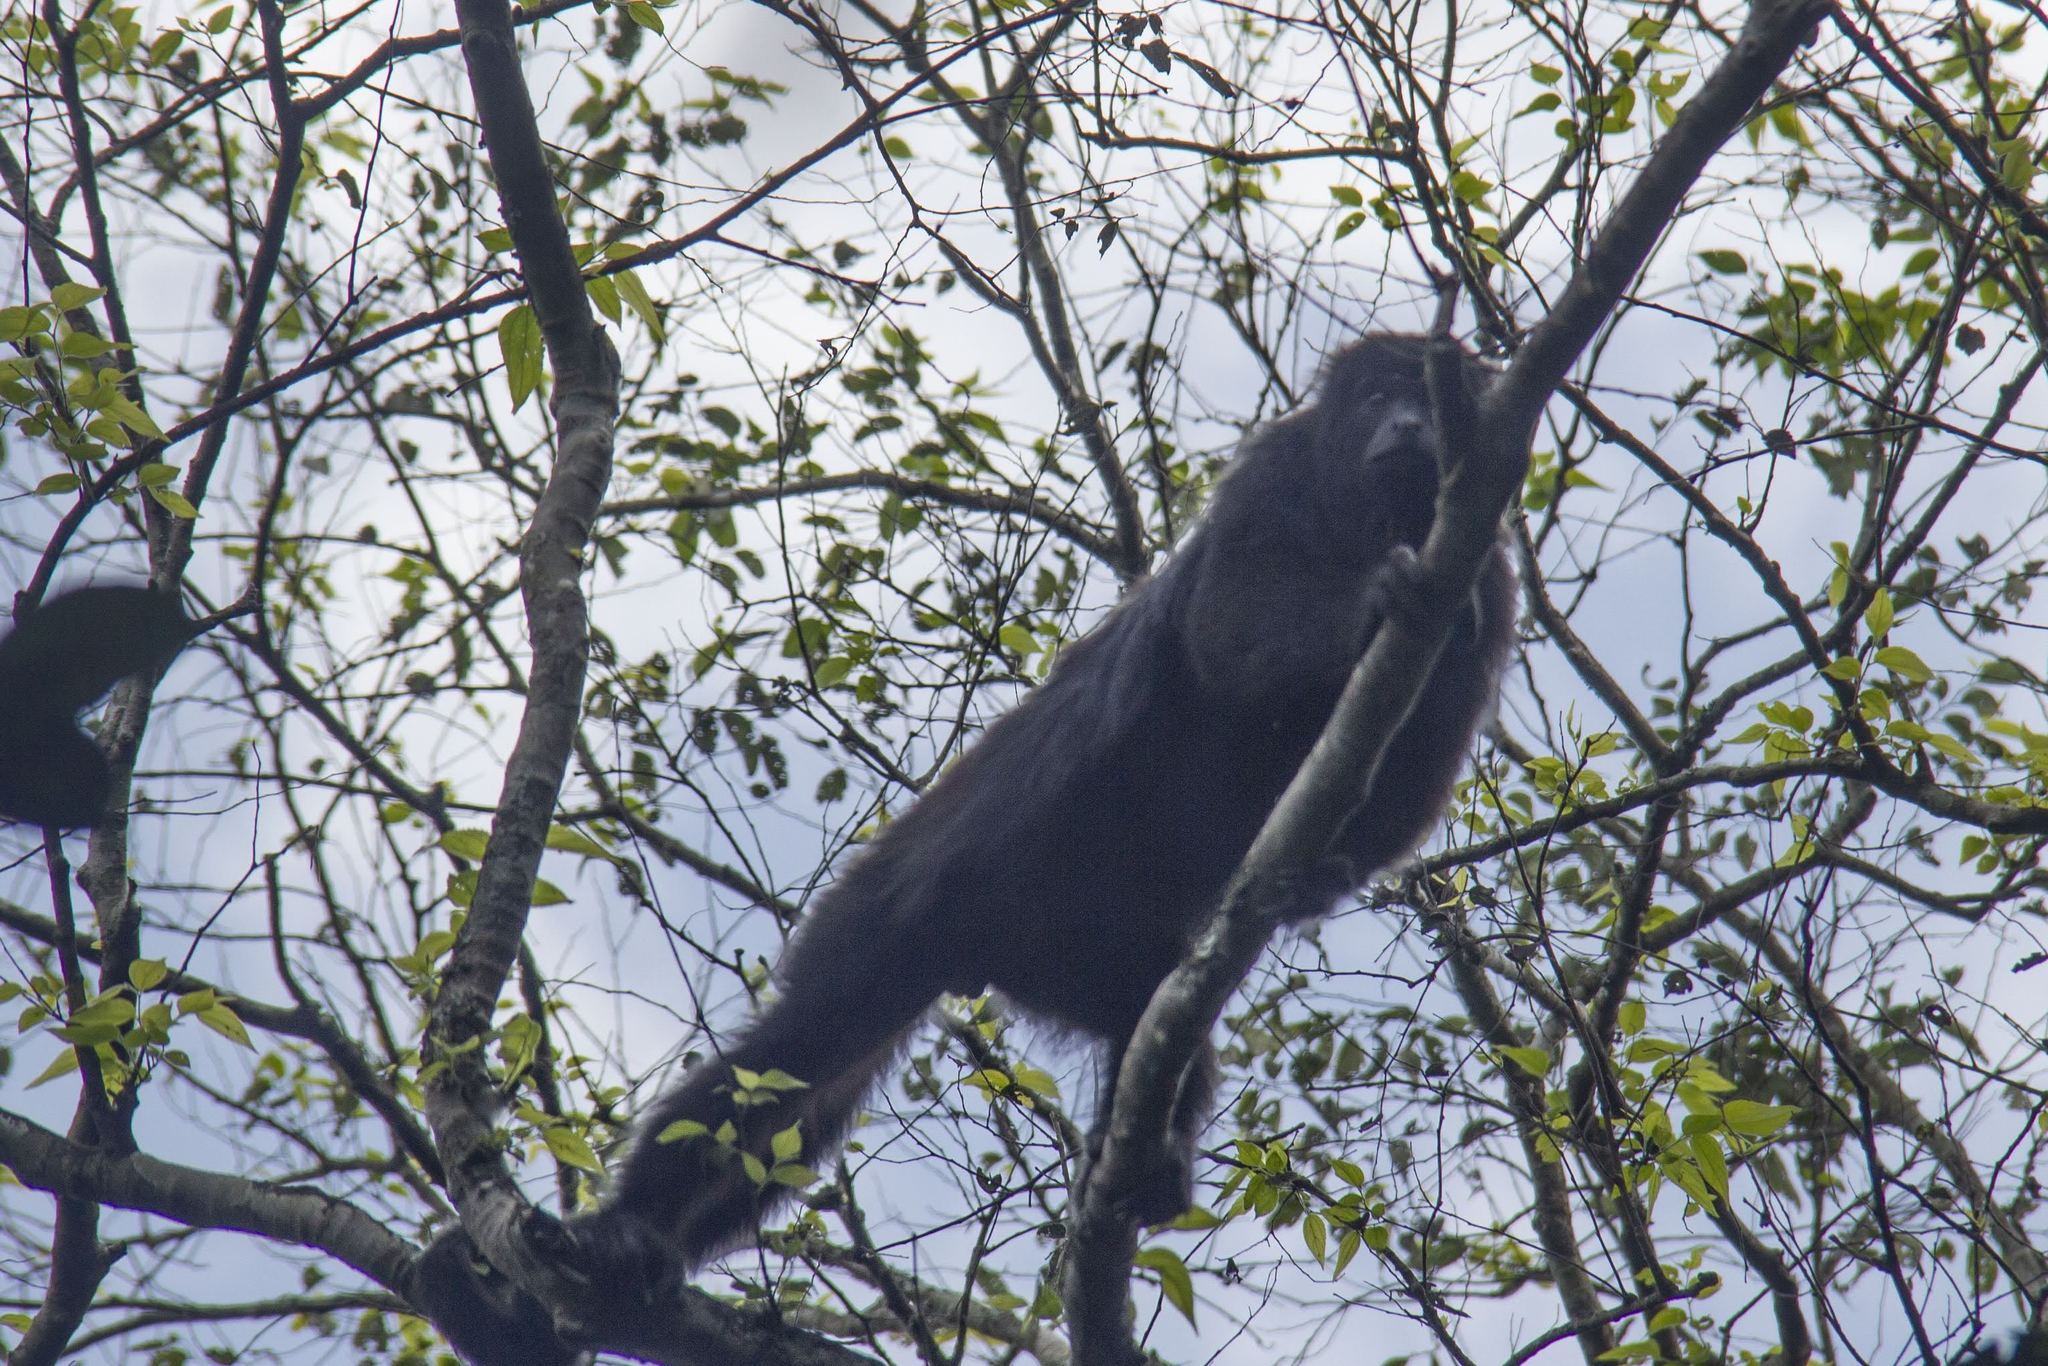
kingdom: Animalia
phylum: Chordata
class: Mammalia
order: Primates
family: Atelidae
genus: Alouatta
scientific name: Alouatta pigra
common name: Guatemalan black howler
